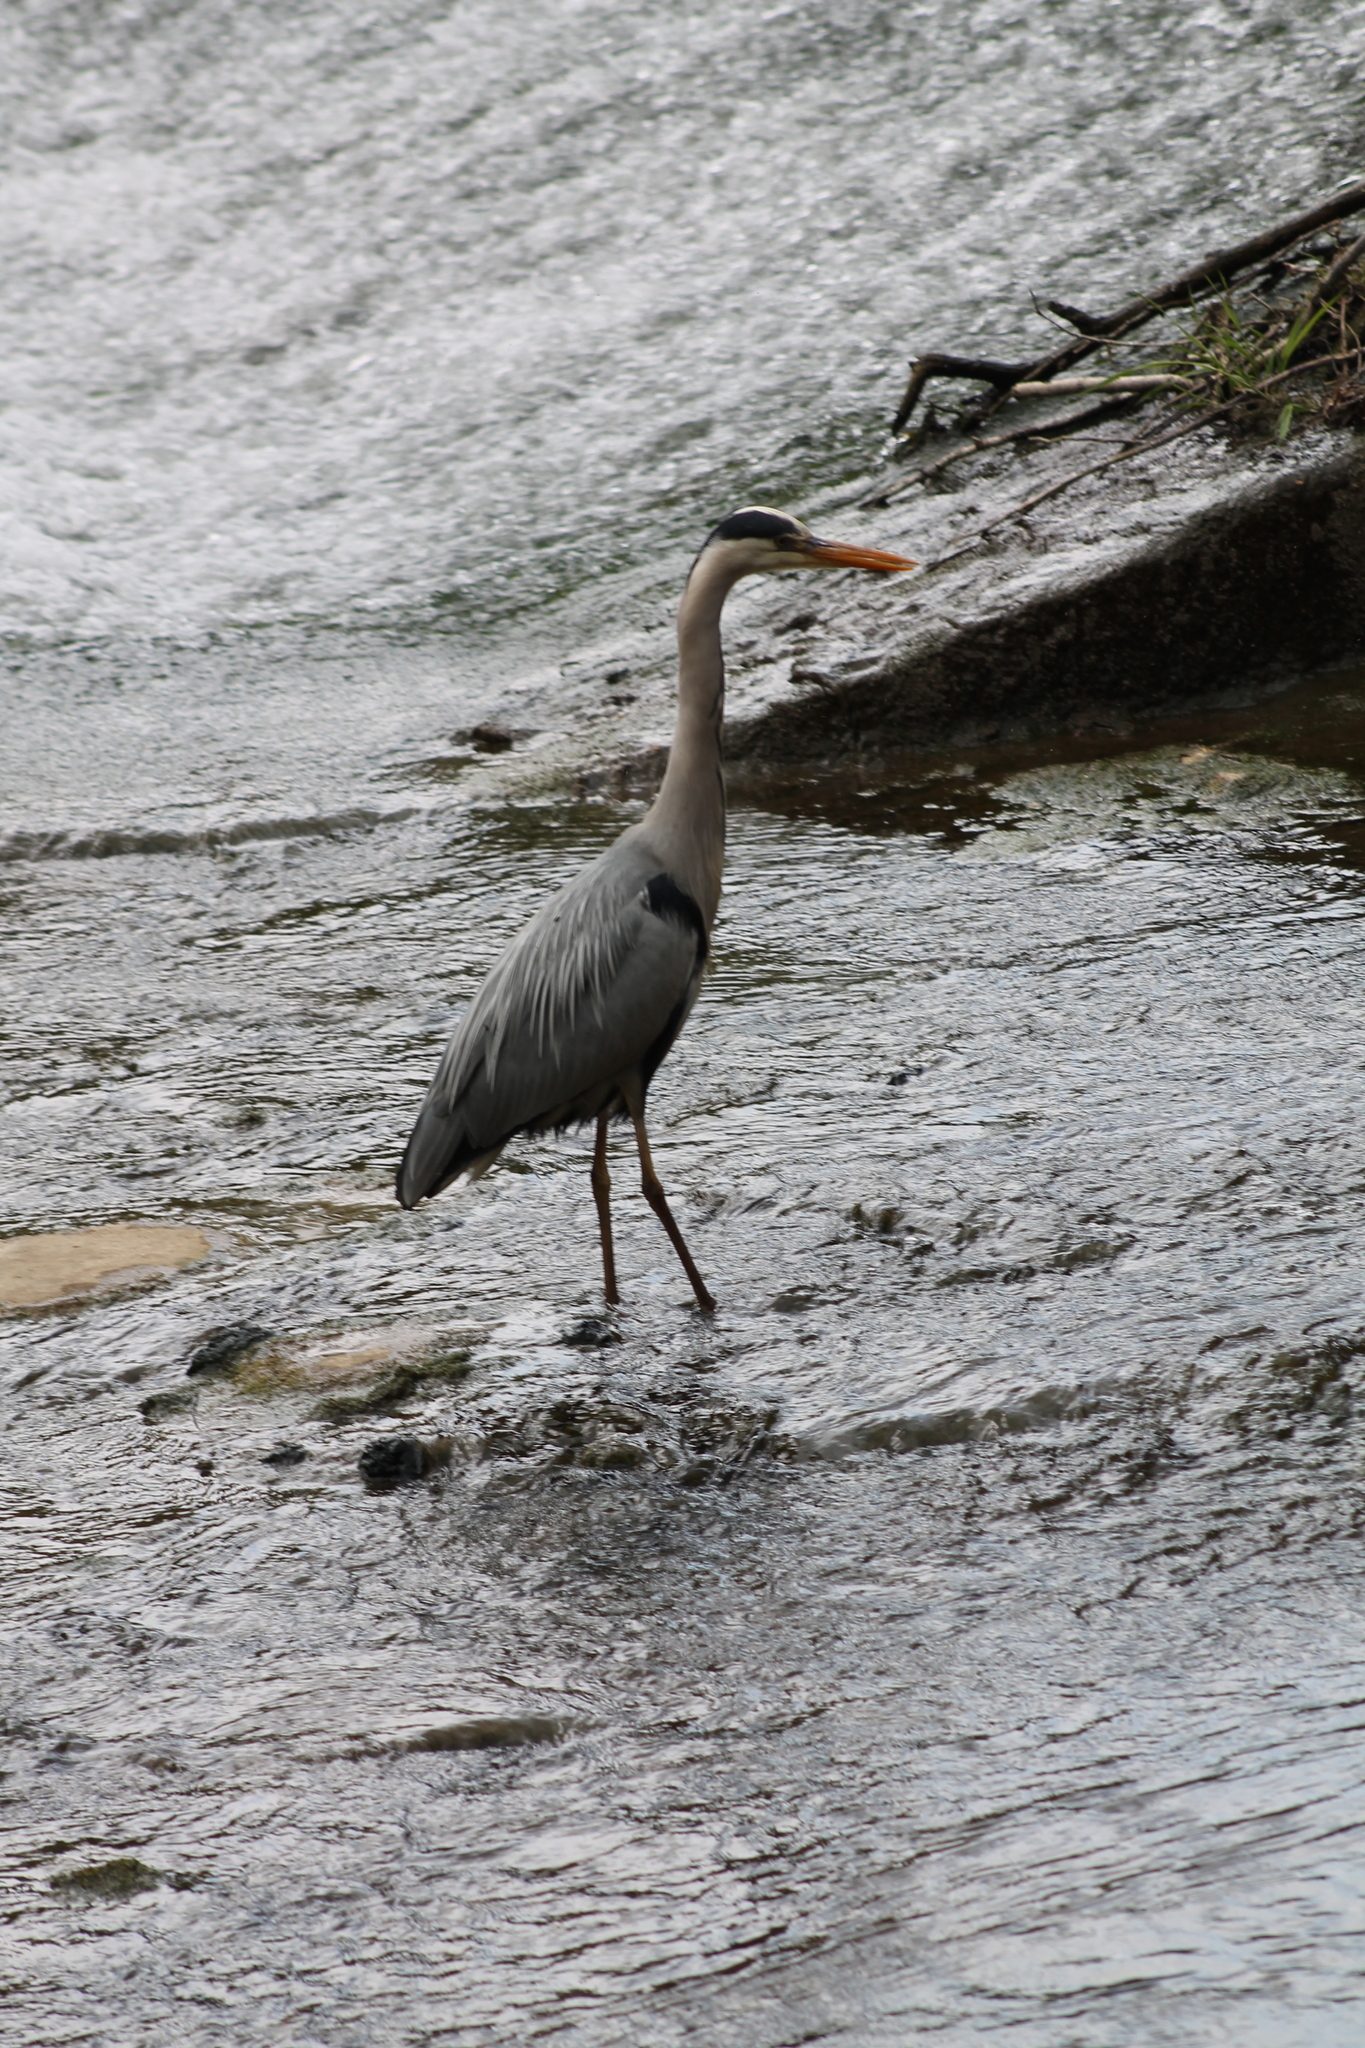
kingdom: Animalia
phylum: Chordata
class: Aves
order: Pelecaniformes
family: Ardeidae
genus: Ardea
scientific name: Ardea cinerea
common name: Grey heron
